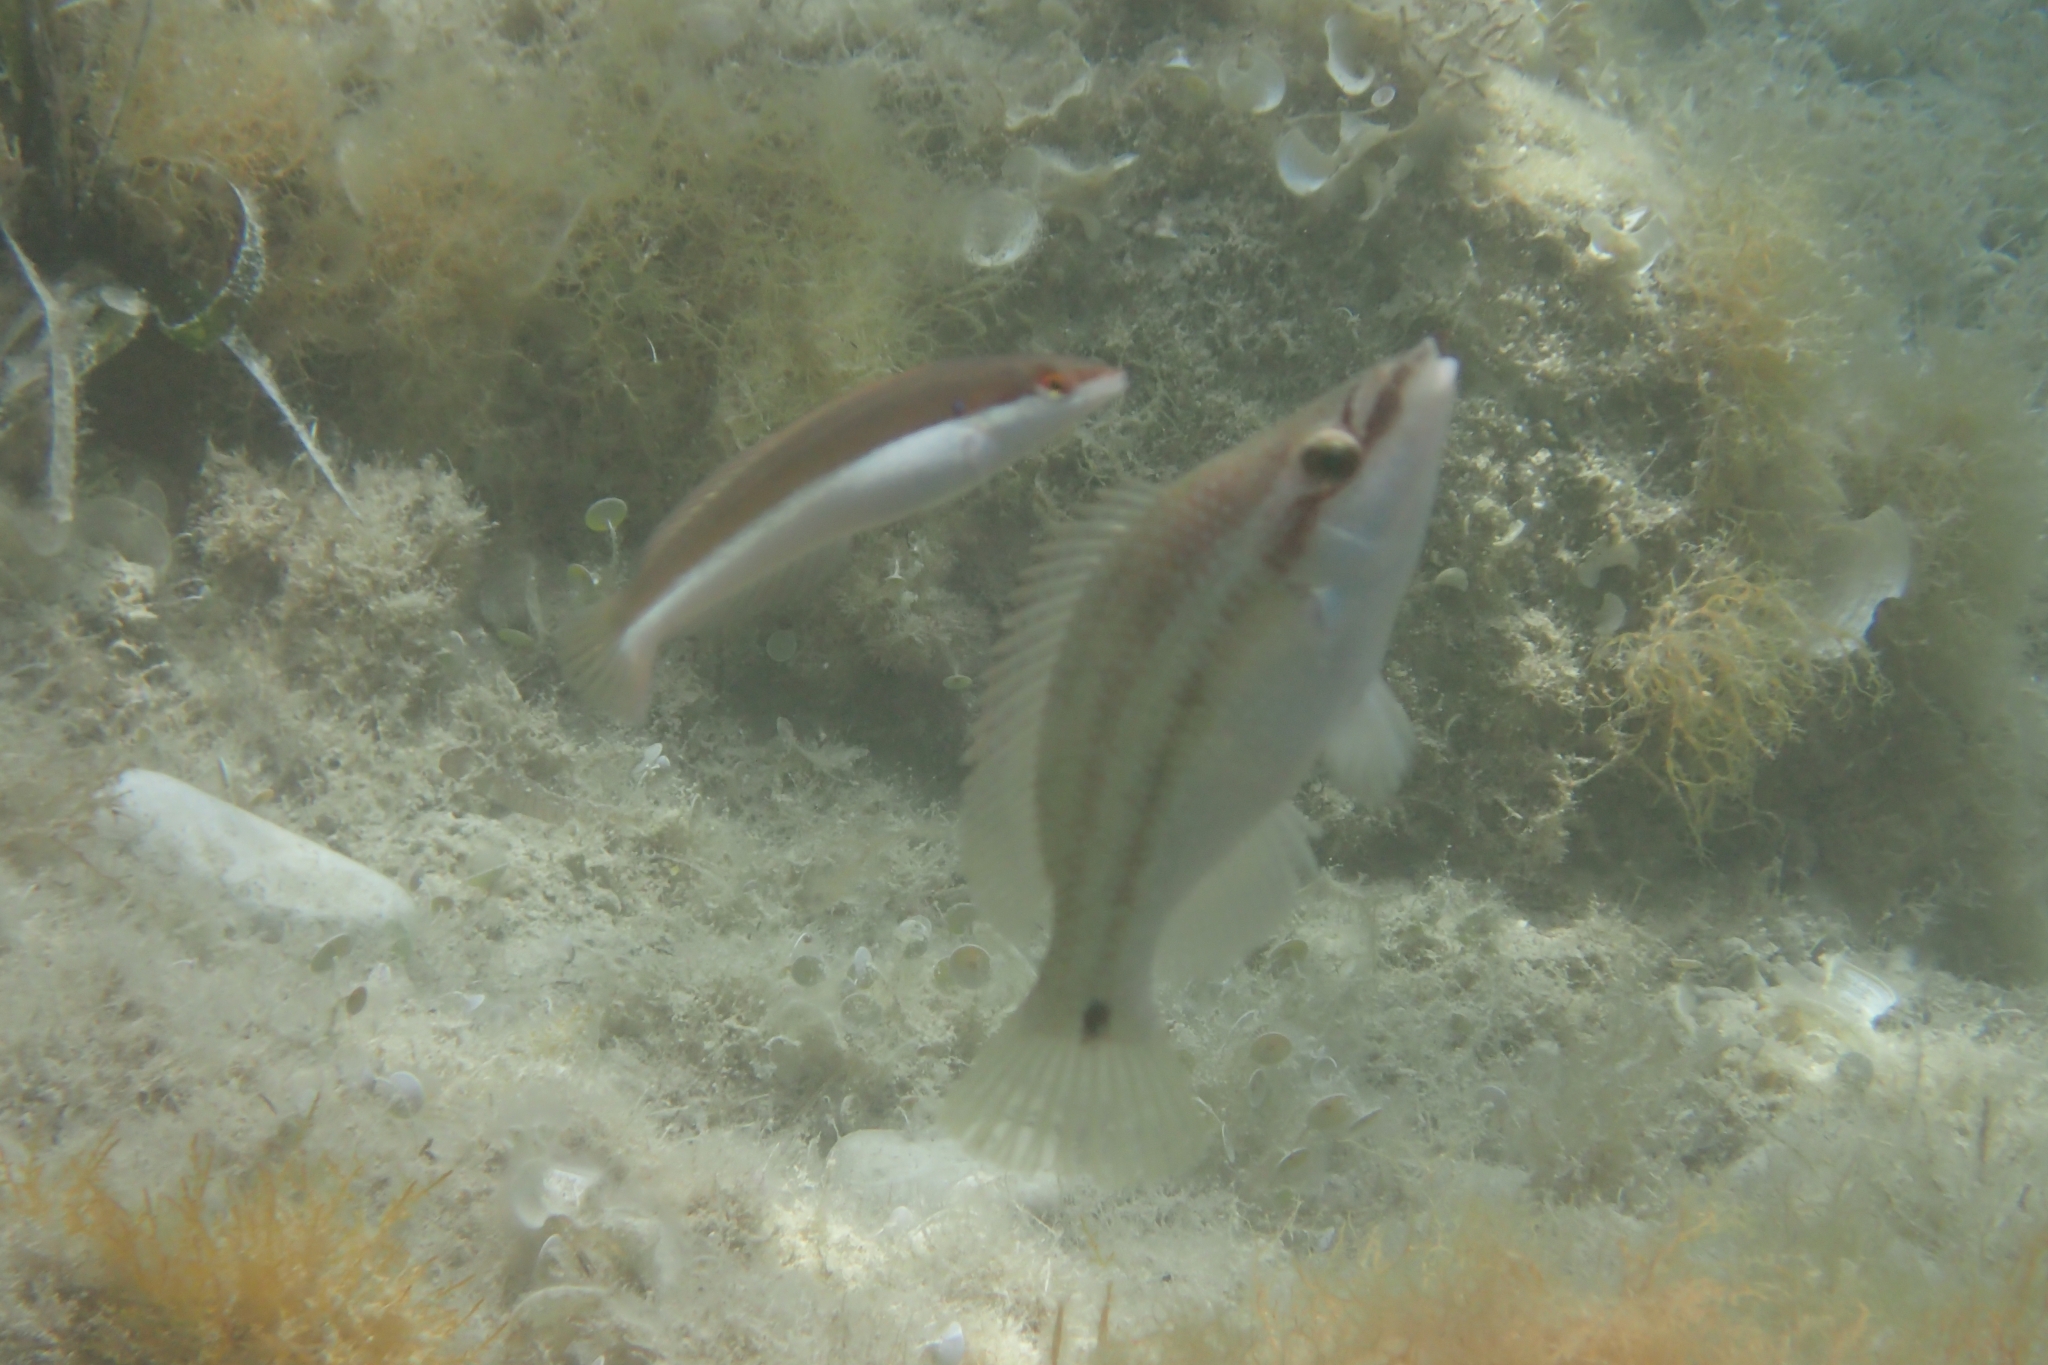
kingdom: Animalia
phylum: Chordata
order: Perciformes
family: Labridae
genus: Coris
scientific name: Coris julis
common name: Rainbow wrasse
